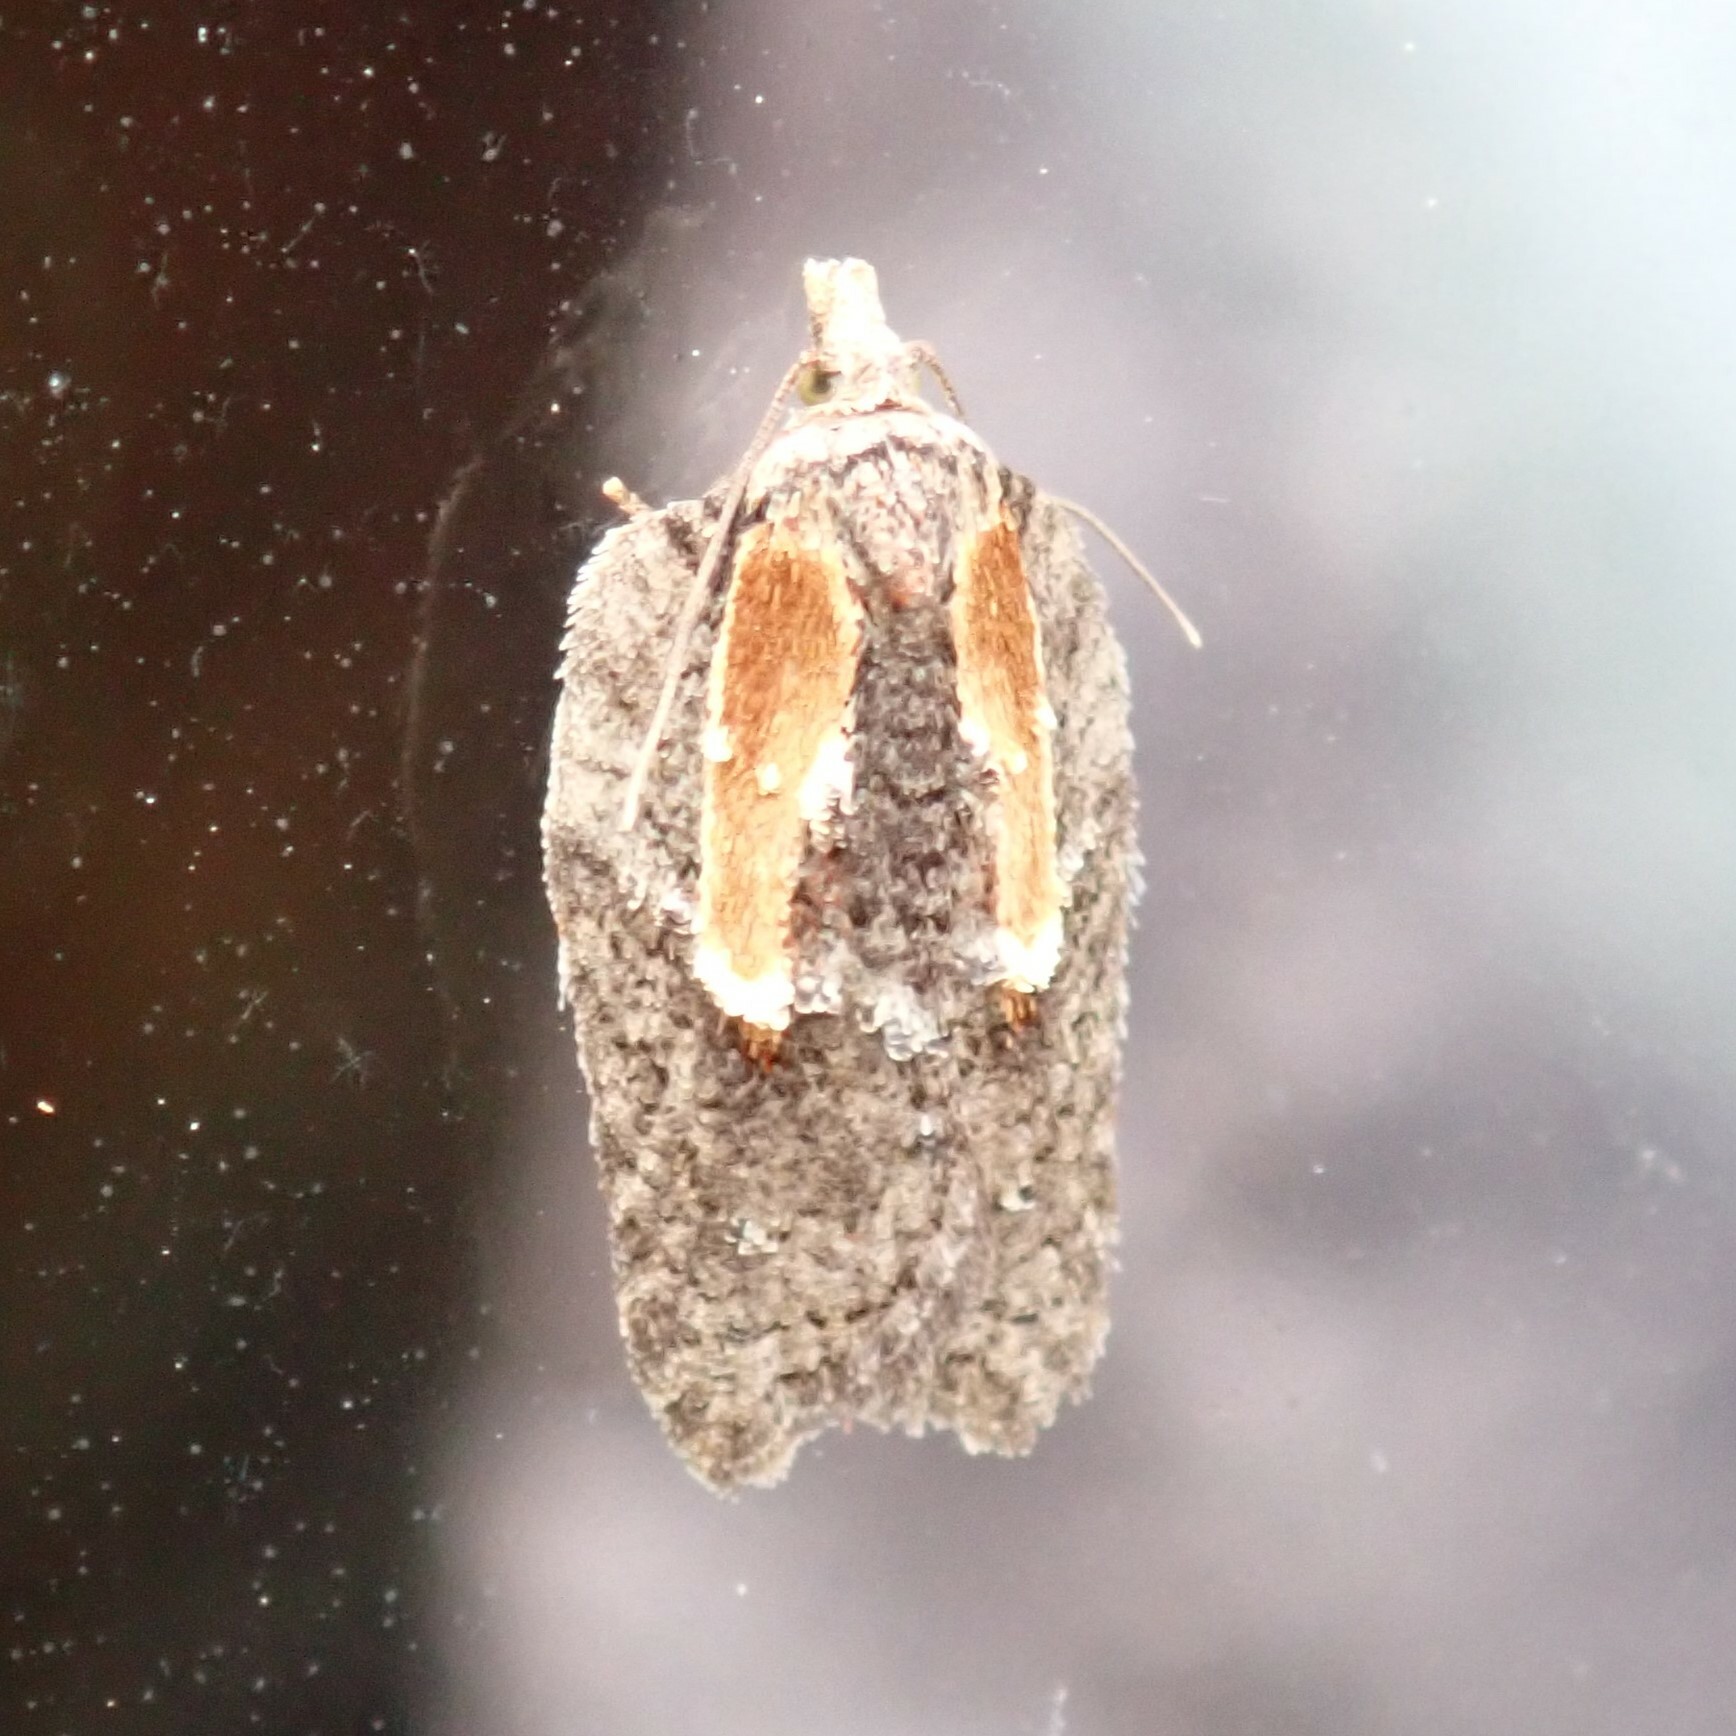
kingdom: Animalia
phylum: Arthropoda
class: Insecta
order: Lepidoptera
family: Tortricidae
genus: Acleris
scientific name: Acleris youngana
